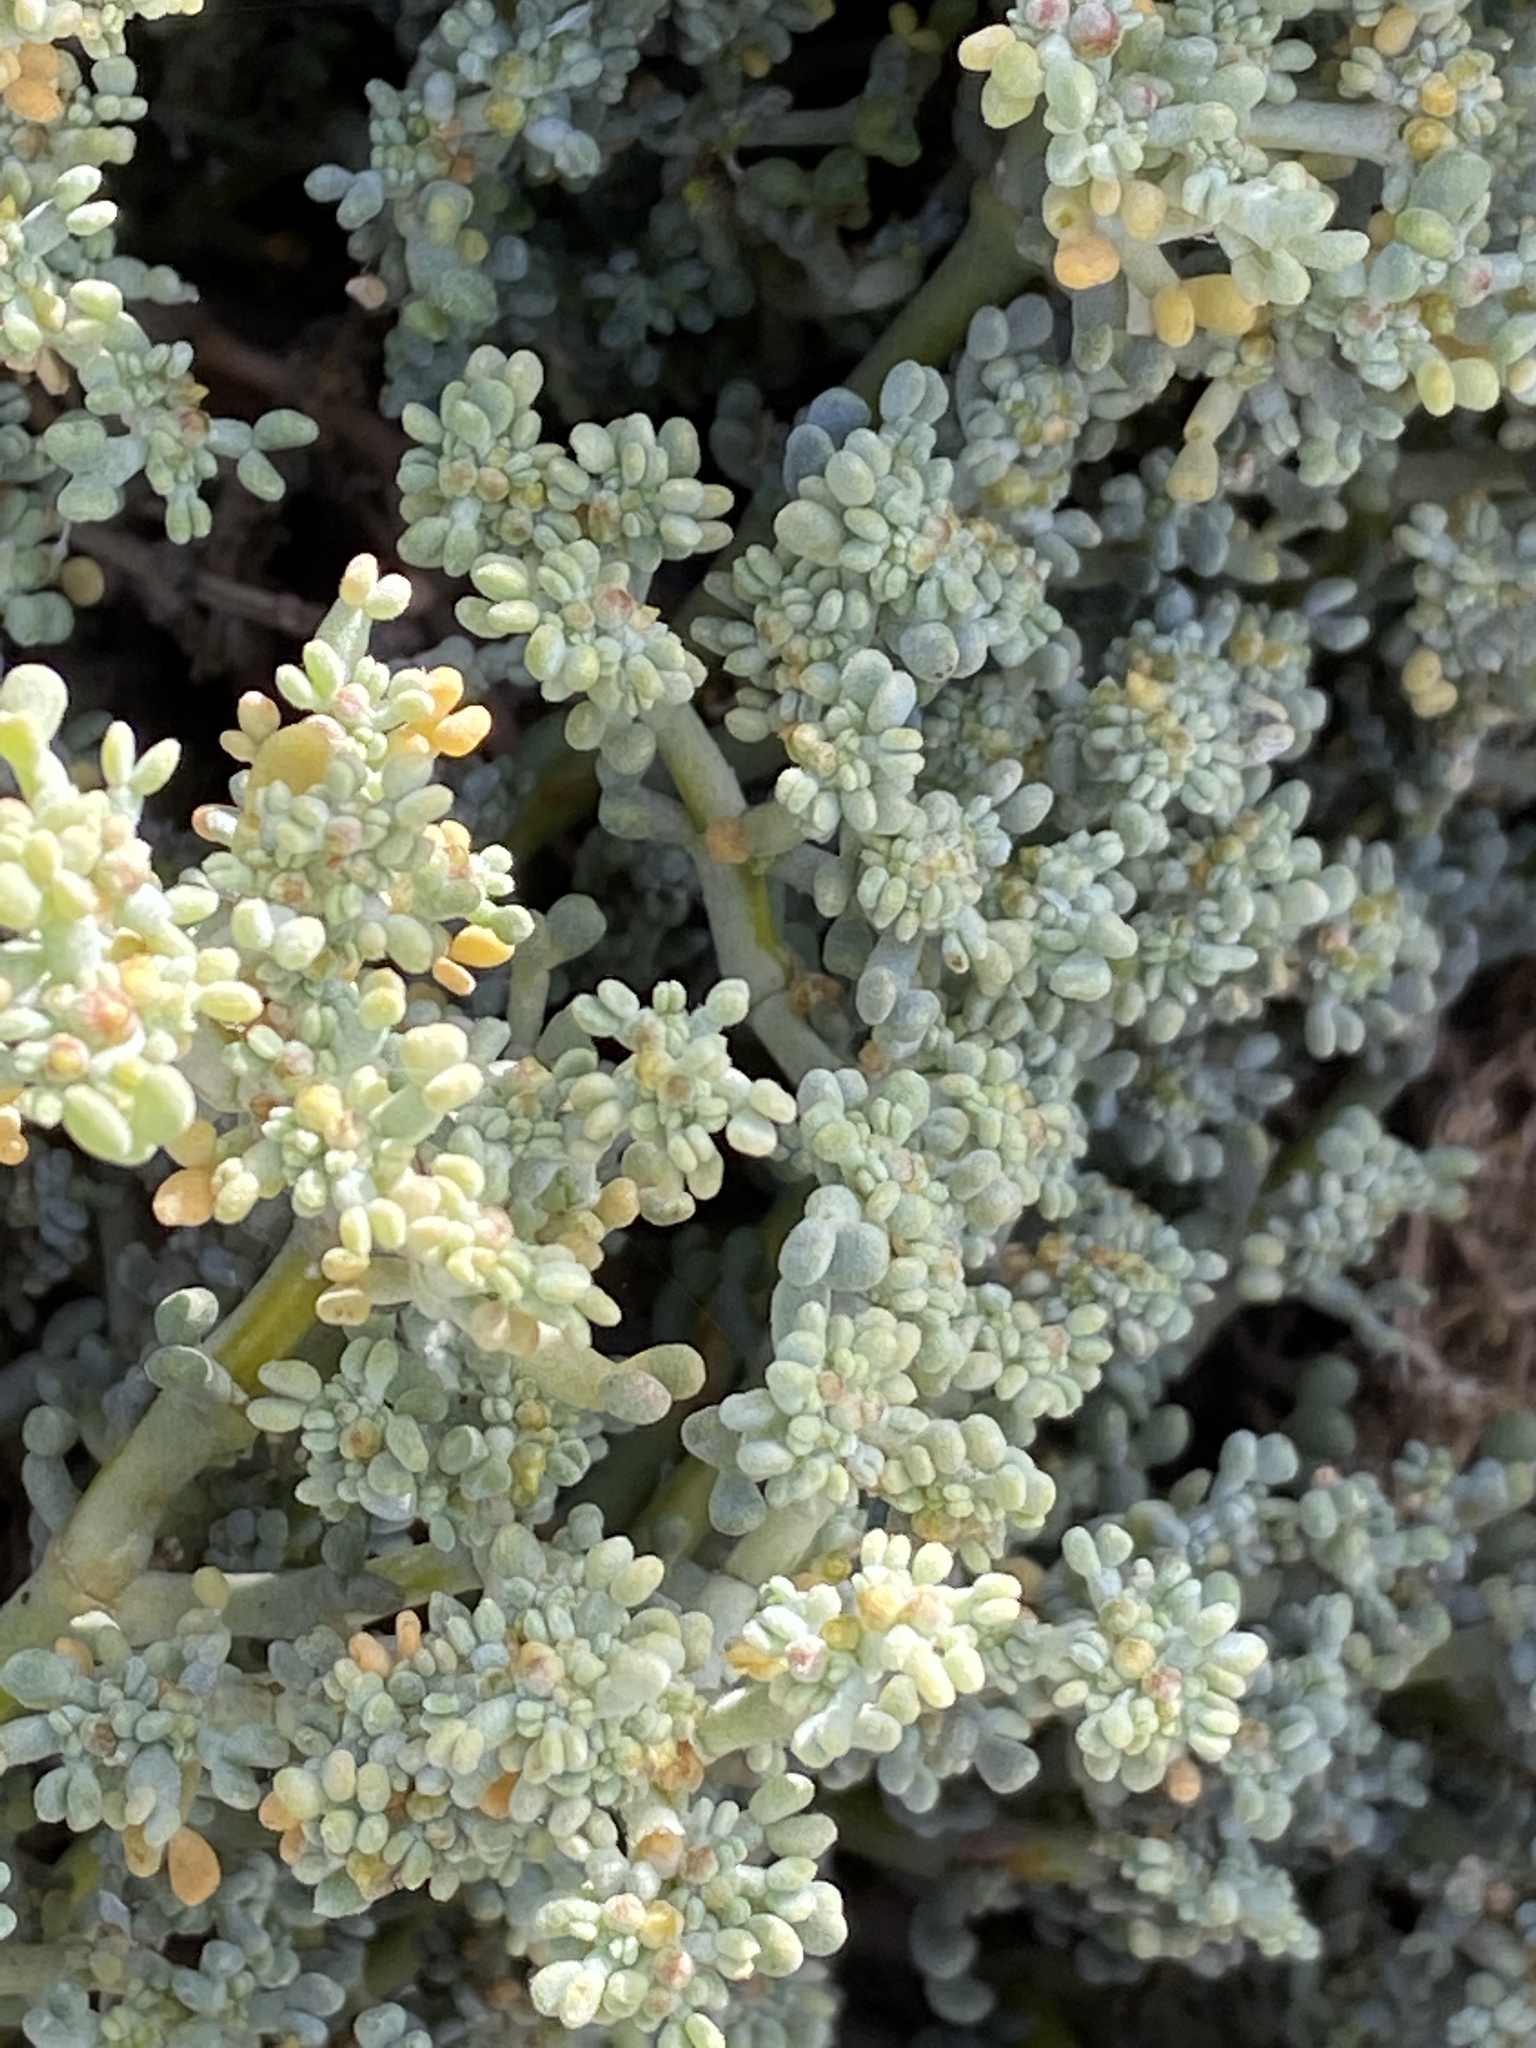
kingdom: Plantae
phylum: Tracheophyta
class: Magnoliopsida
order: Zygophyllales
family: Zygophyllaceae
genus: Tetraena
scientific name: Tetraena gaetula
